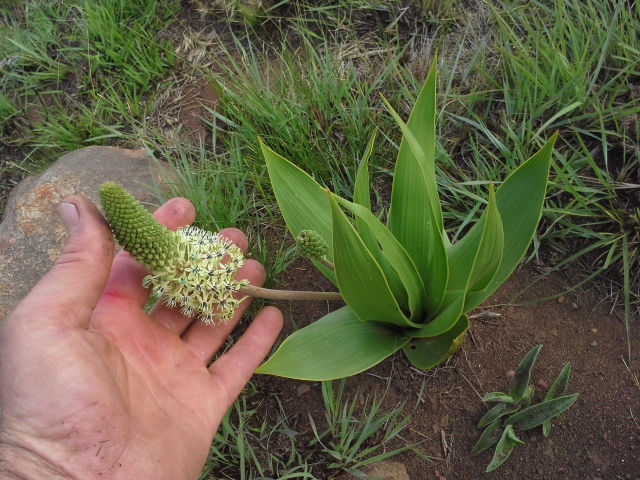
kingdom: Plantae
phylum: Tracheophyta
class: Liliopsida
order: Asparagales
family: Asparagaceae
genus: Schizocarphus
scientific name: Schizocarphus nervosus
